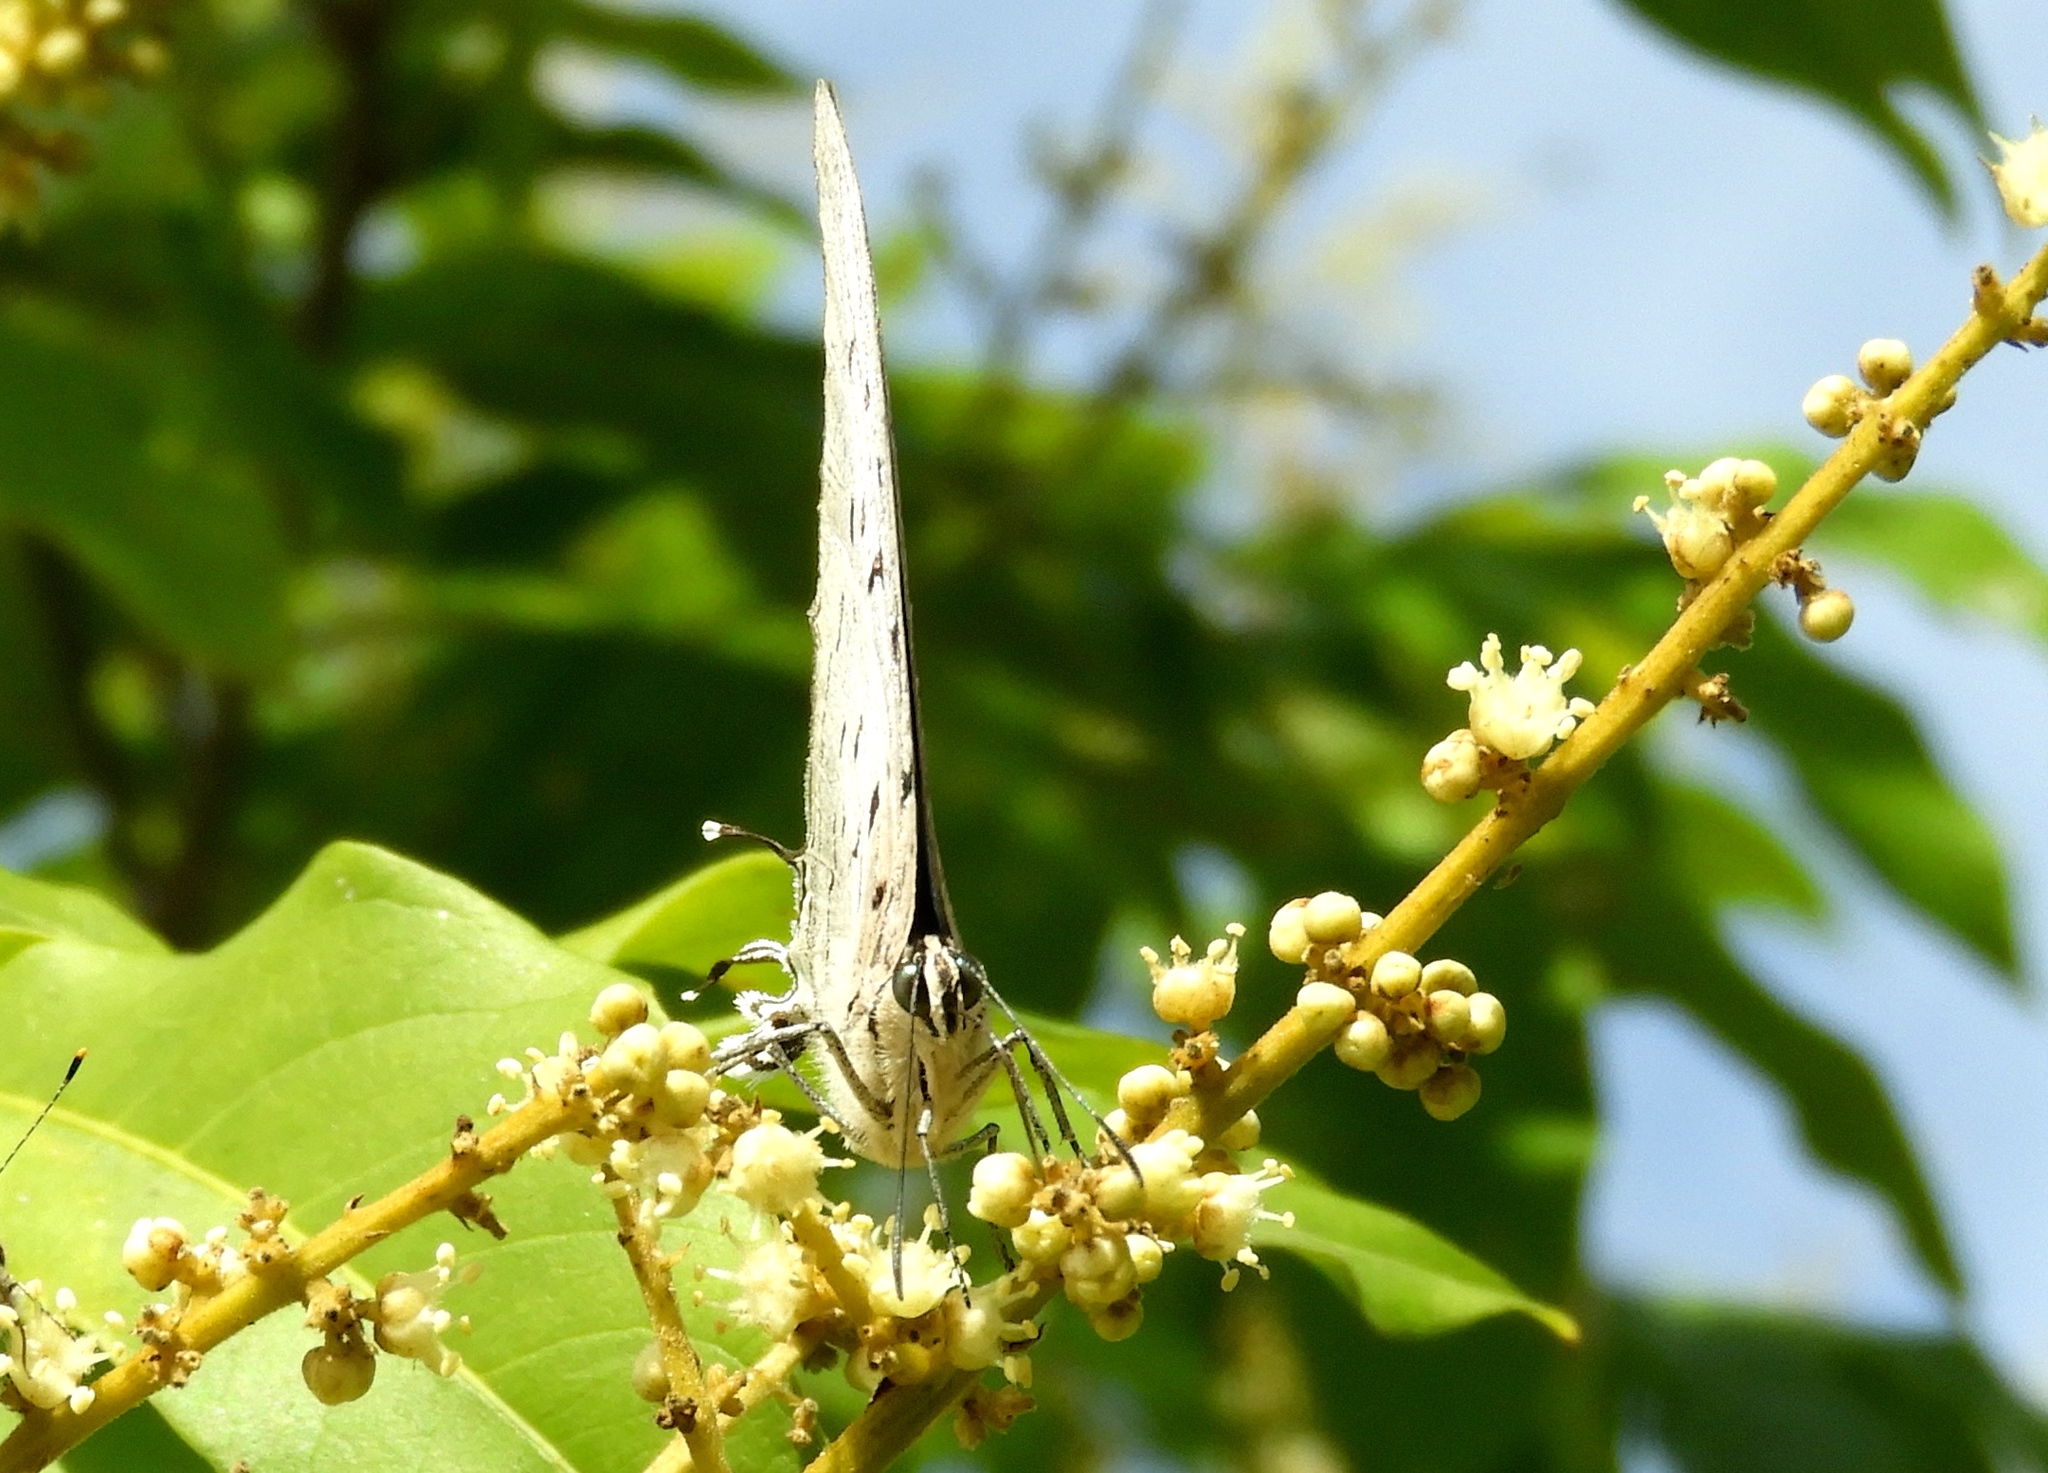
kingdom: Animalia
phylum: Arthropoda
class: Insecta
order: Lepidoptera
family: Lycaenidae
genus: Pseudolycaena
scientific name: Pseudolycaena damo
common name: Sky-blue hairstreak
